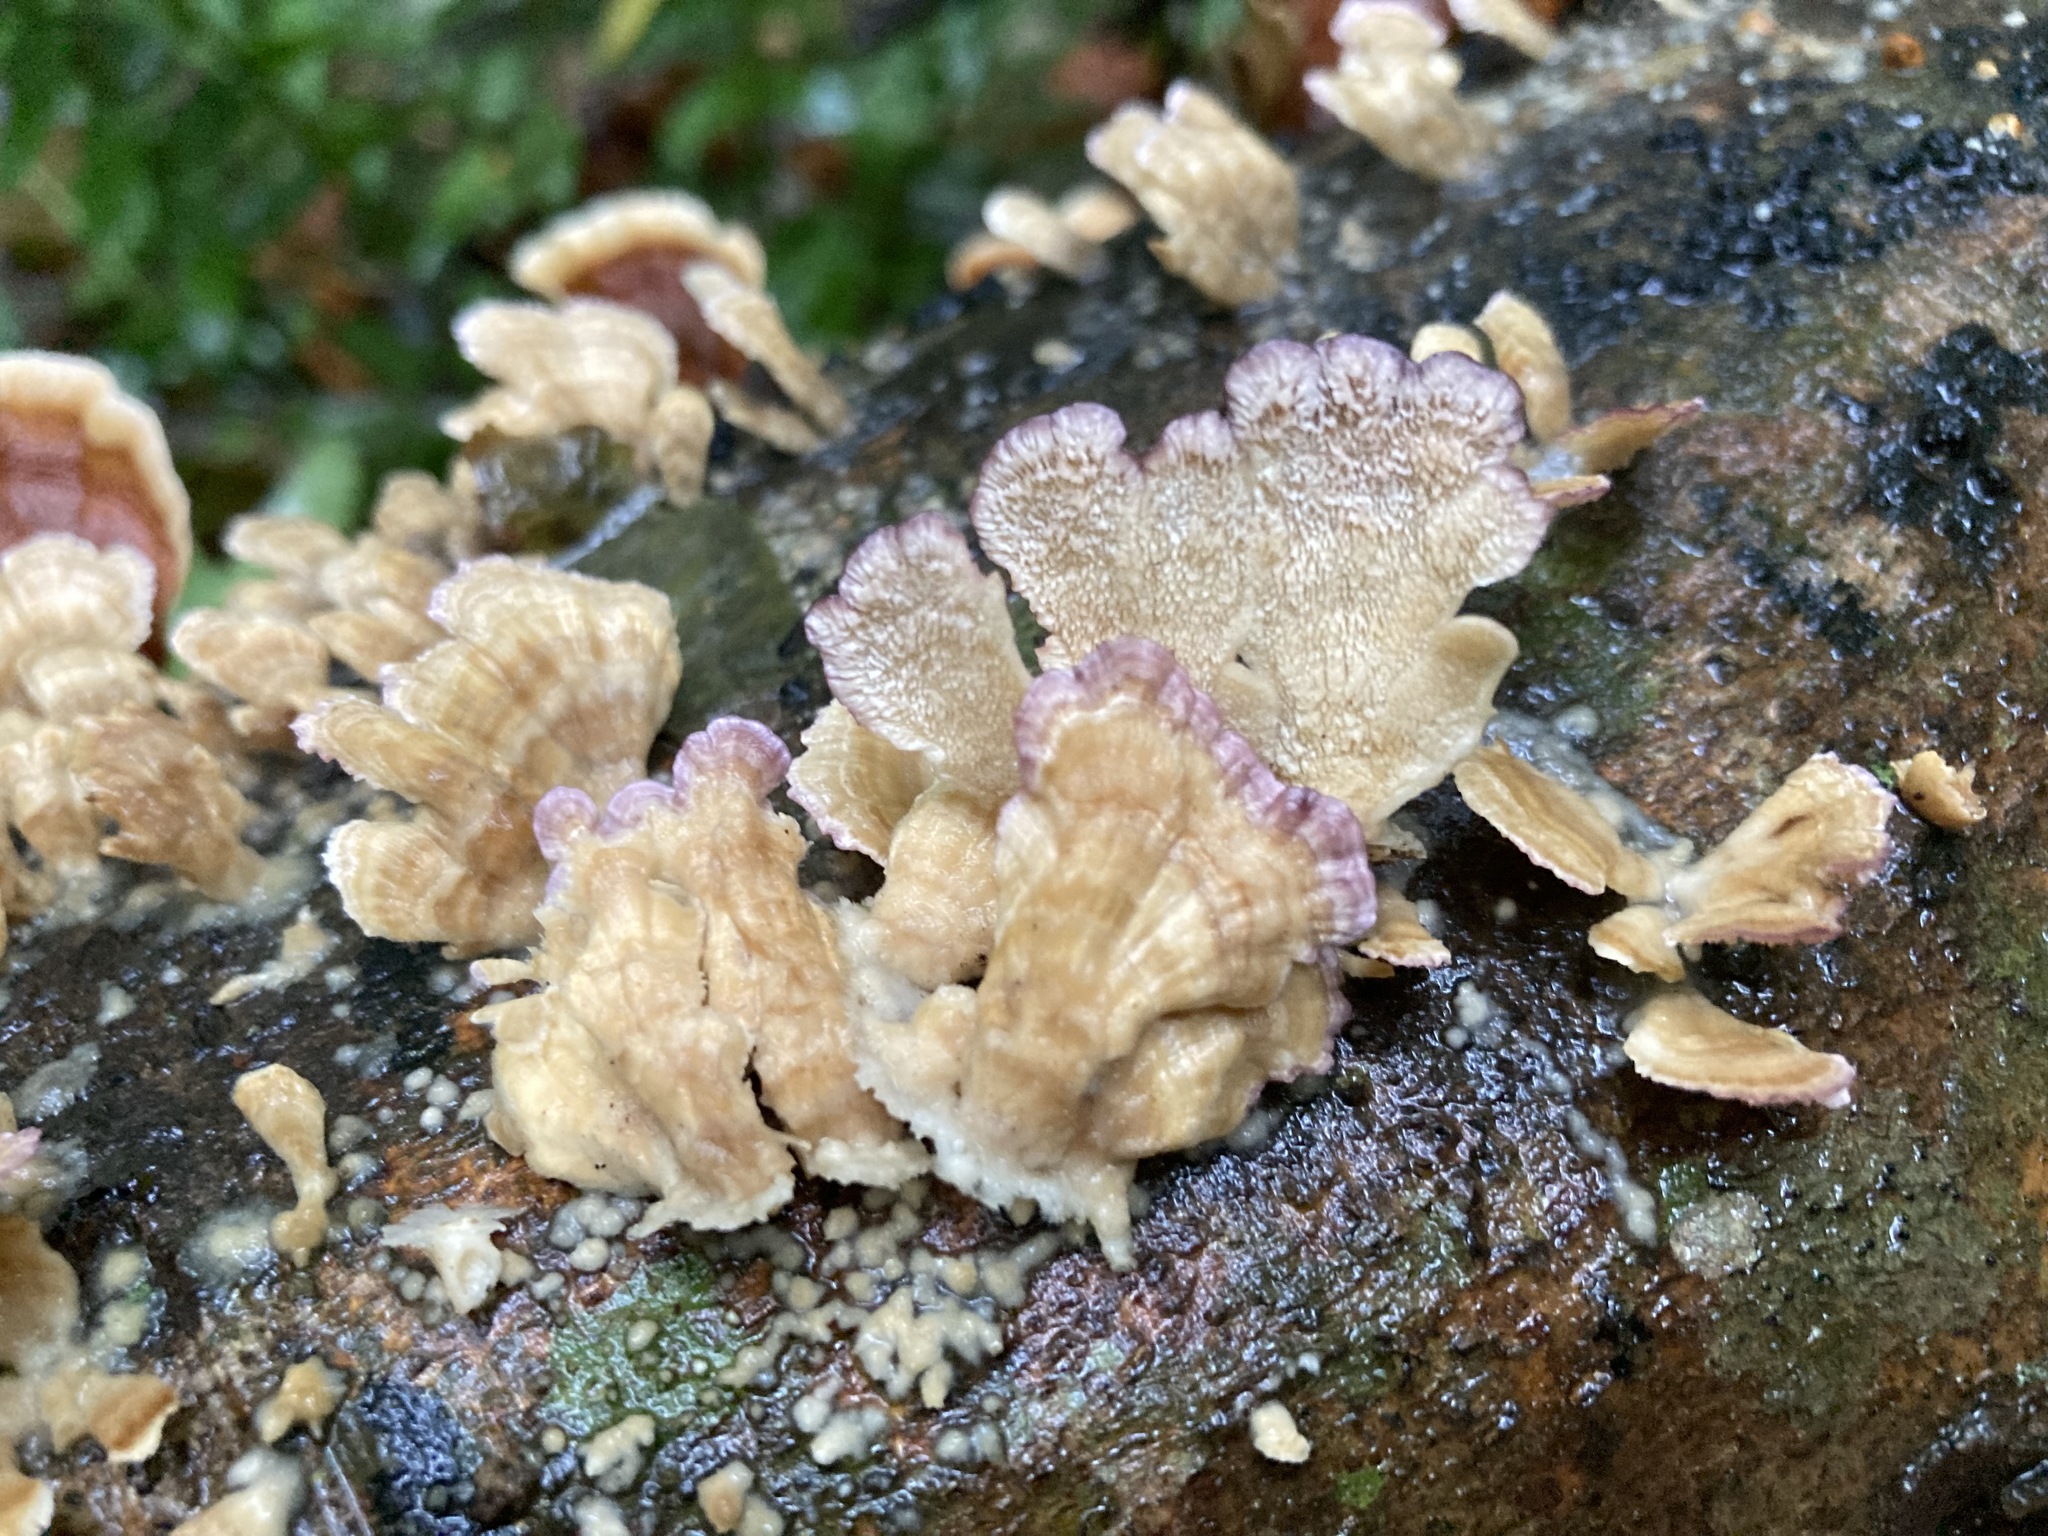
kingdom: Fungi
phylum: Basidiomycota
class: Agaricomycetes
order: Hymenochaetales
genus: Trichaptum
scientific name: Trichaptum biforme
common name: Violet-toothed polypore
